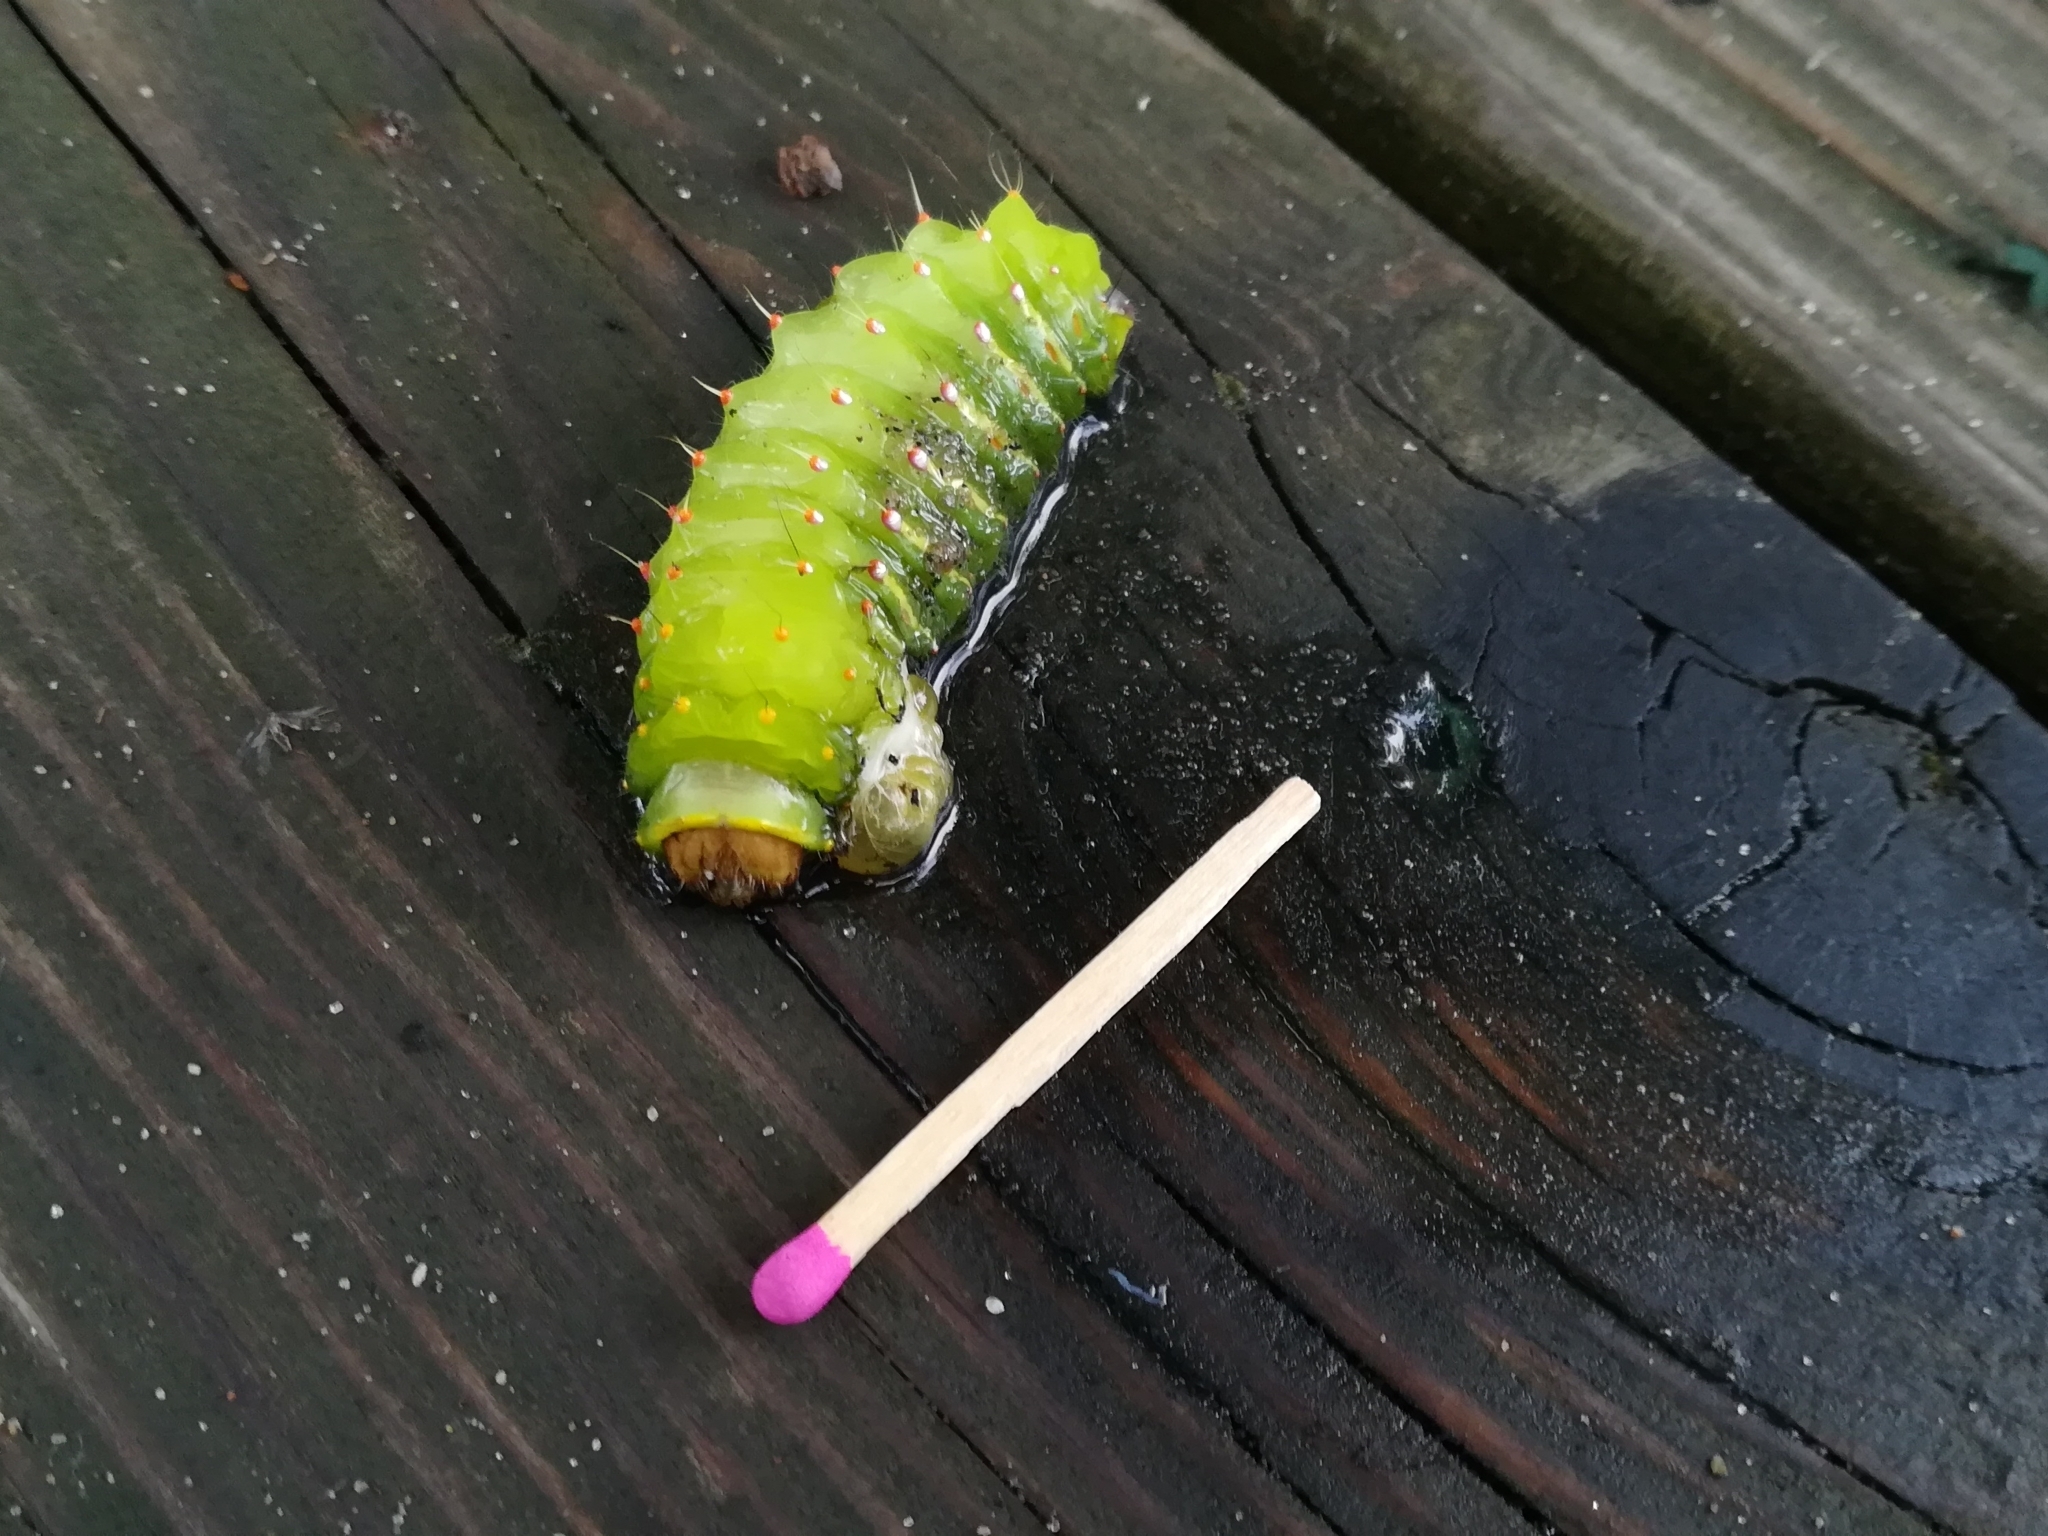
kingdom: Animalia
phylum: Arthropoda
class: Insecta
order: Lepidoptera
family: Saturniidae
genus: Antheraea
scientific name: Antheraea polyphemus
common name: Polyphemus moth
